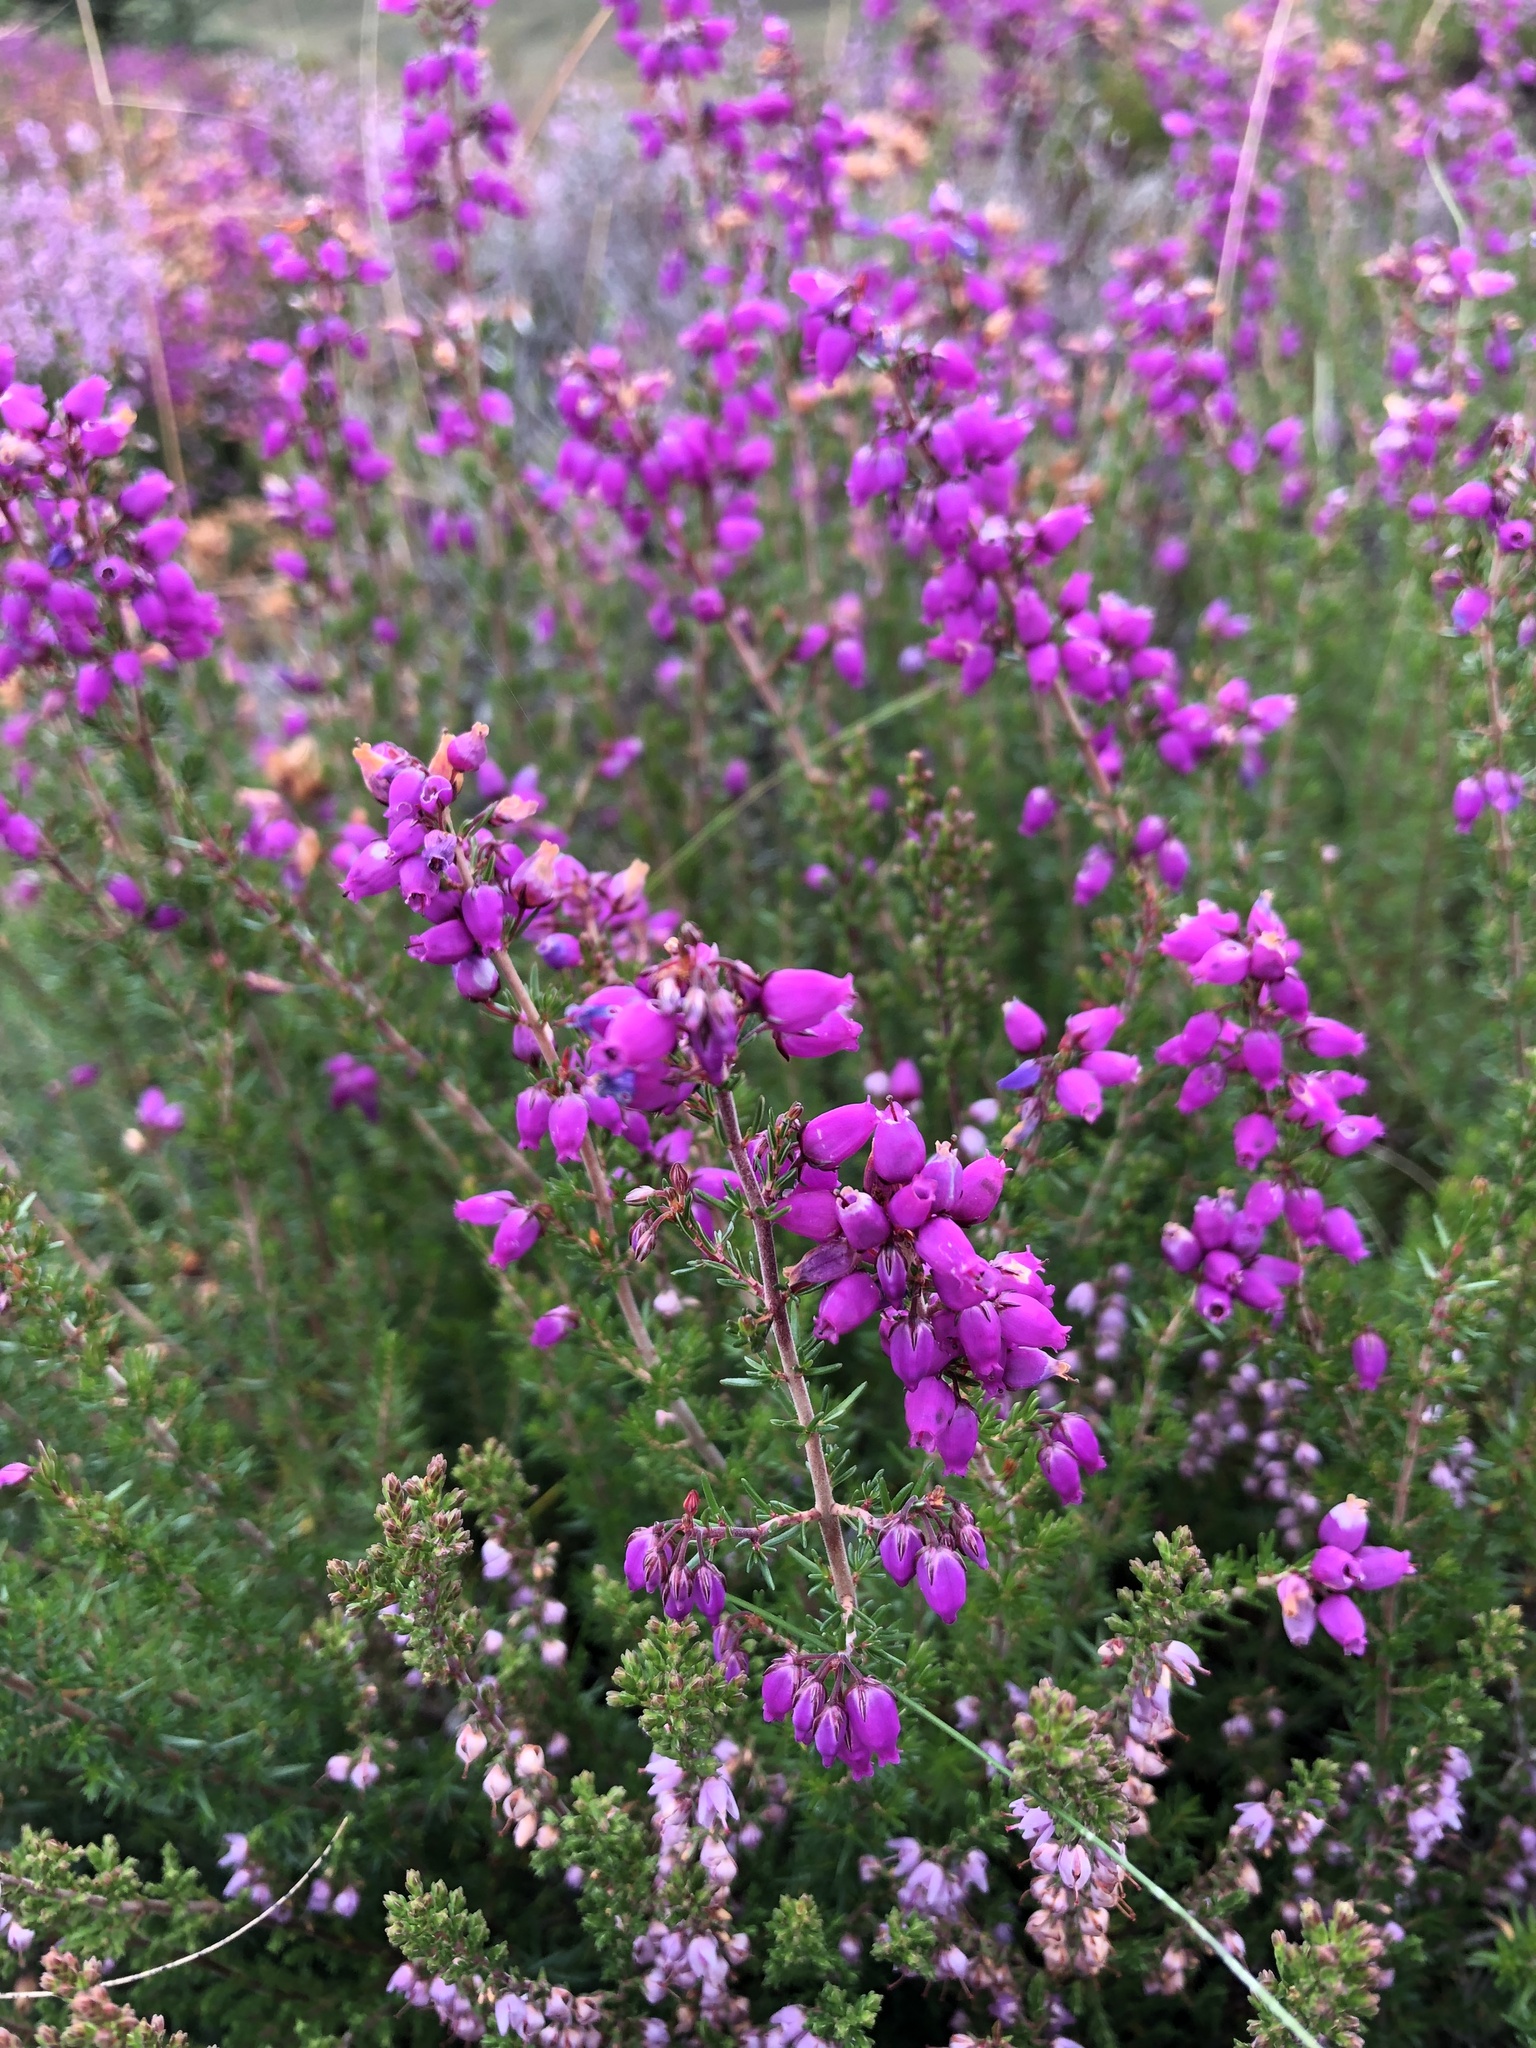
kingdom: Plantae
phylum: Tracheophyta
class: Magnoliopsida
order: Ericales
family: Ericaceae
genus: Erica
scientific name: Erica cinerea
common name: Bell heather
